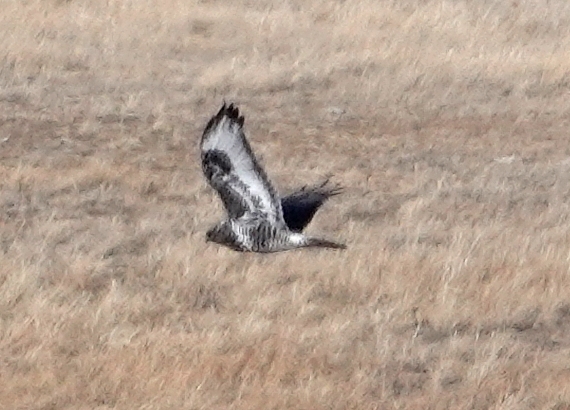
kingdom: Animalia
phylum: Chordata
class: Aves
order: Accipitriformes
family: Accipitridae
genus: Buteo
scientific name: Buteo lagopus
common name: Rough-legged buzzard
